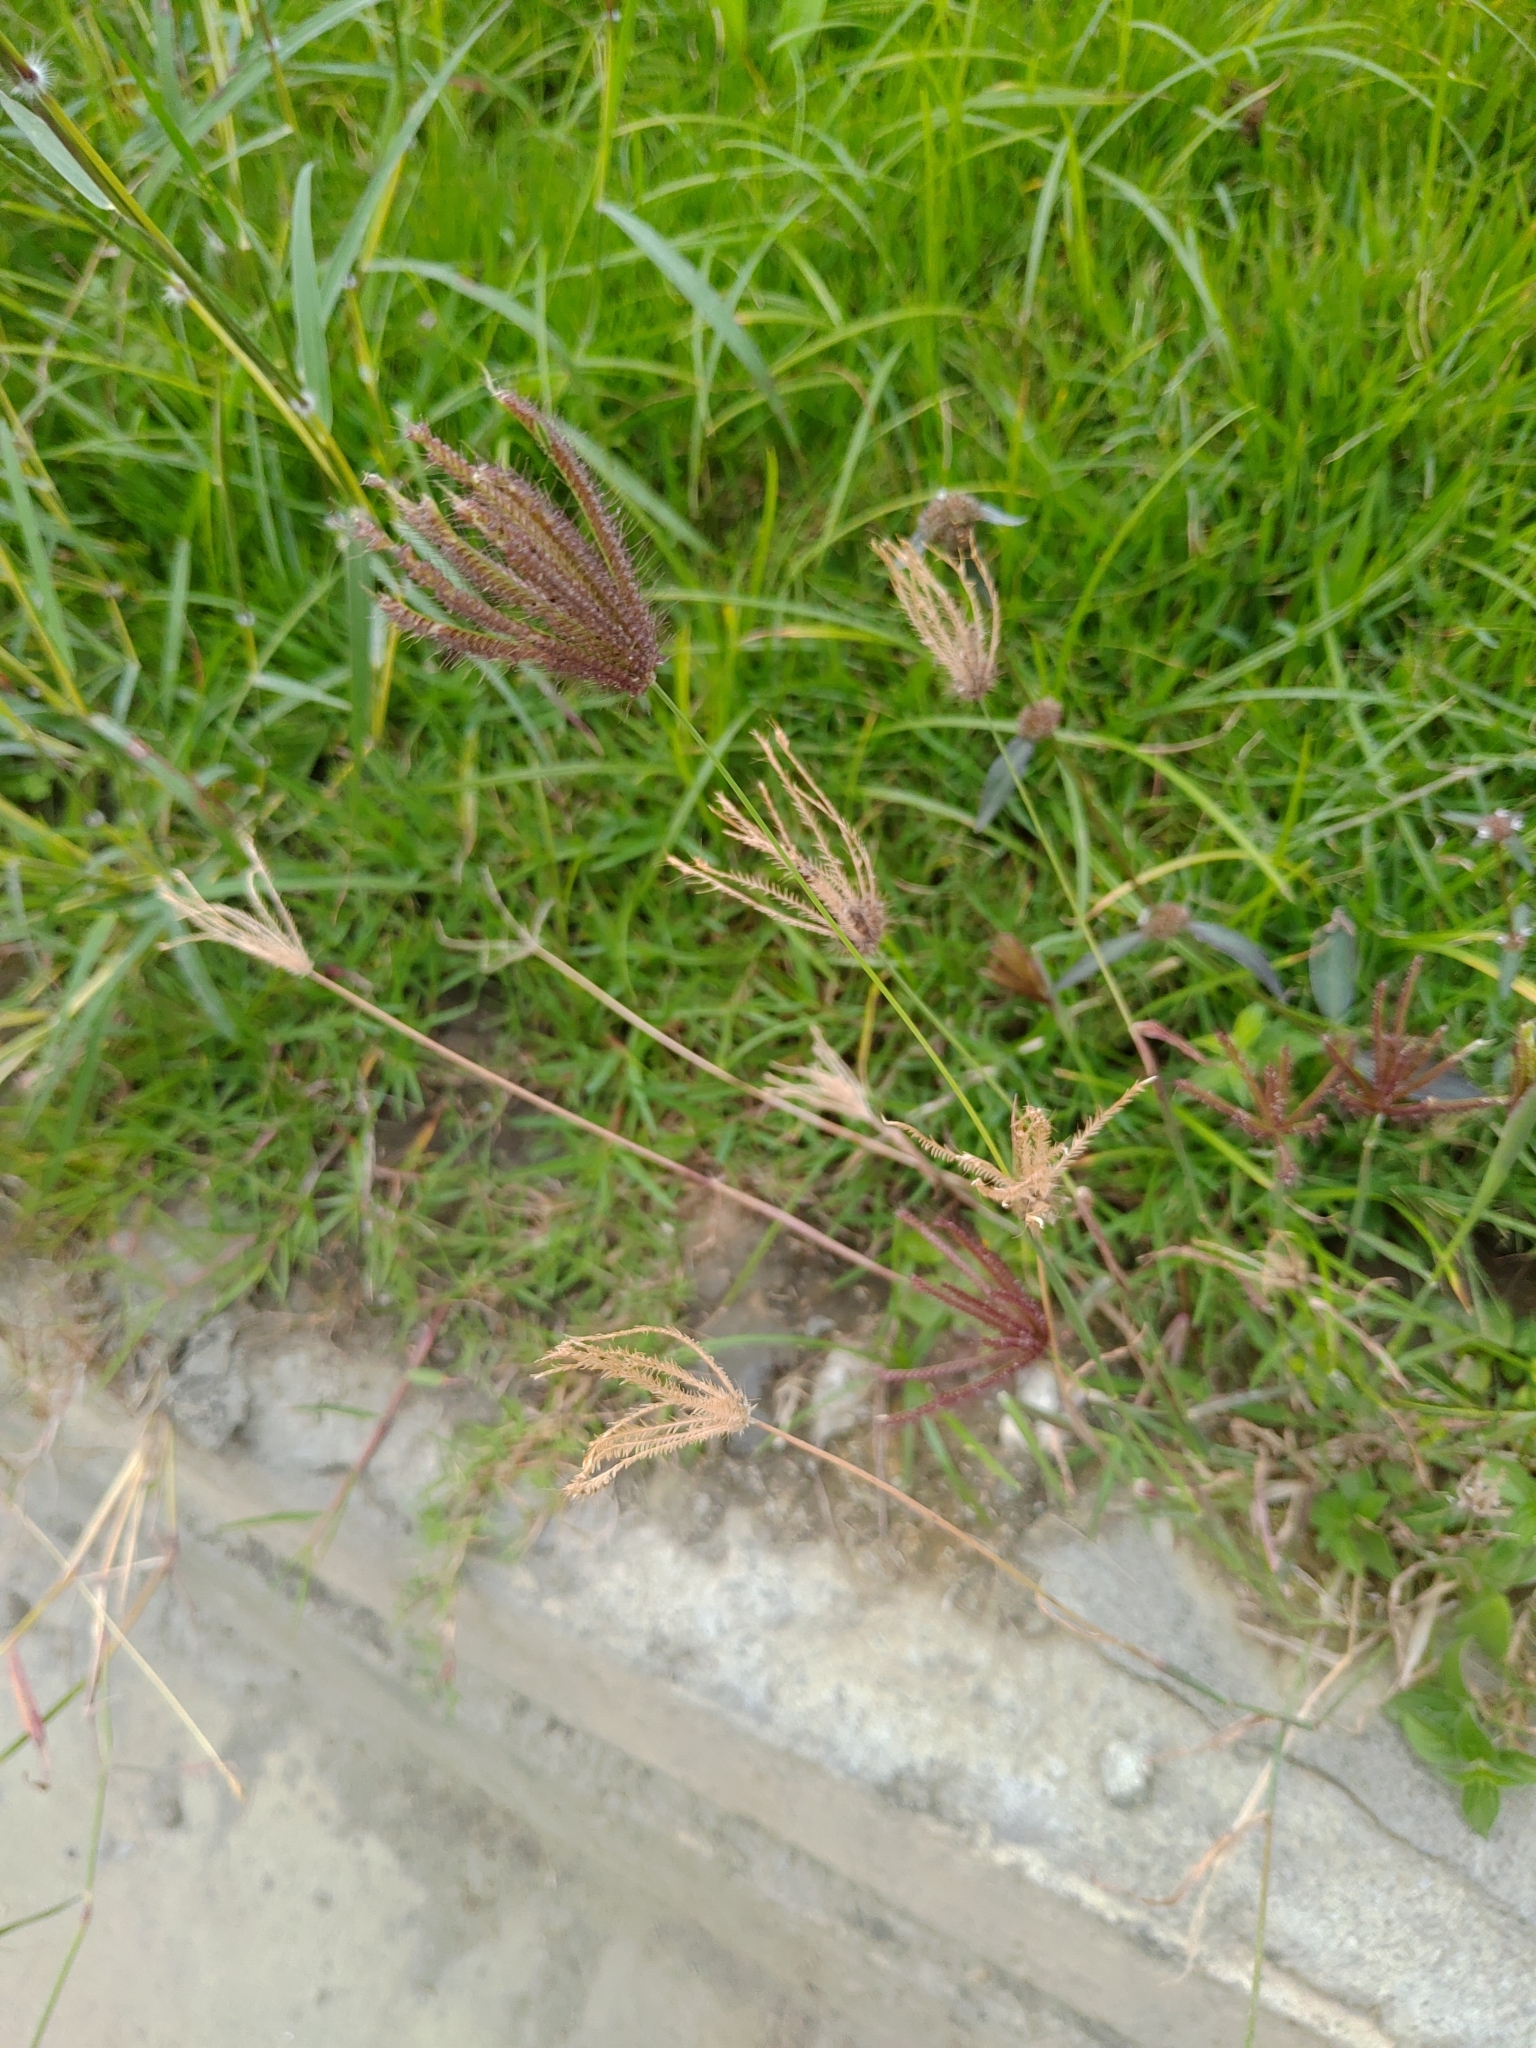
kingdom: Plantae
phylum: Tracheophyta
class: Liliopsida
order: Poales
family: Poaceae
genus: Chloris
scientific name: Chloris barbata
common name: Swollen fingergrass
